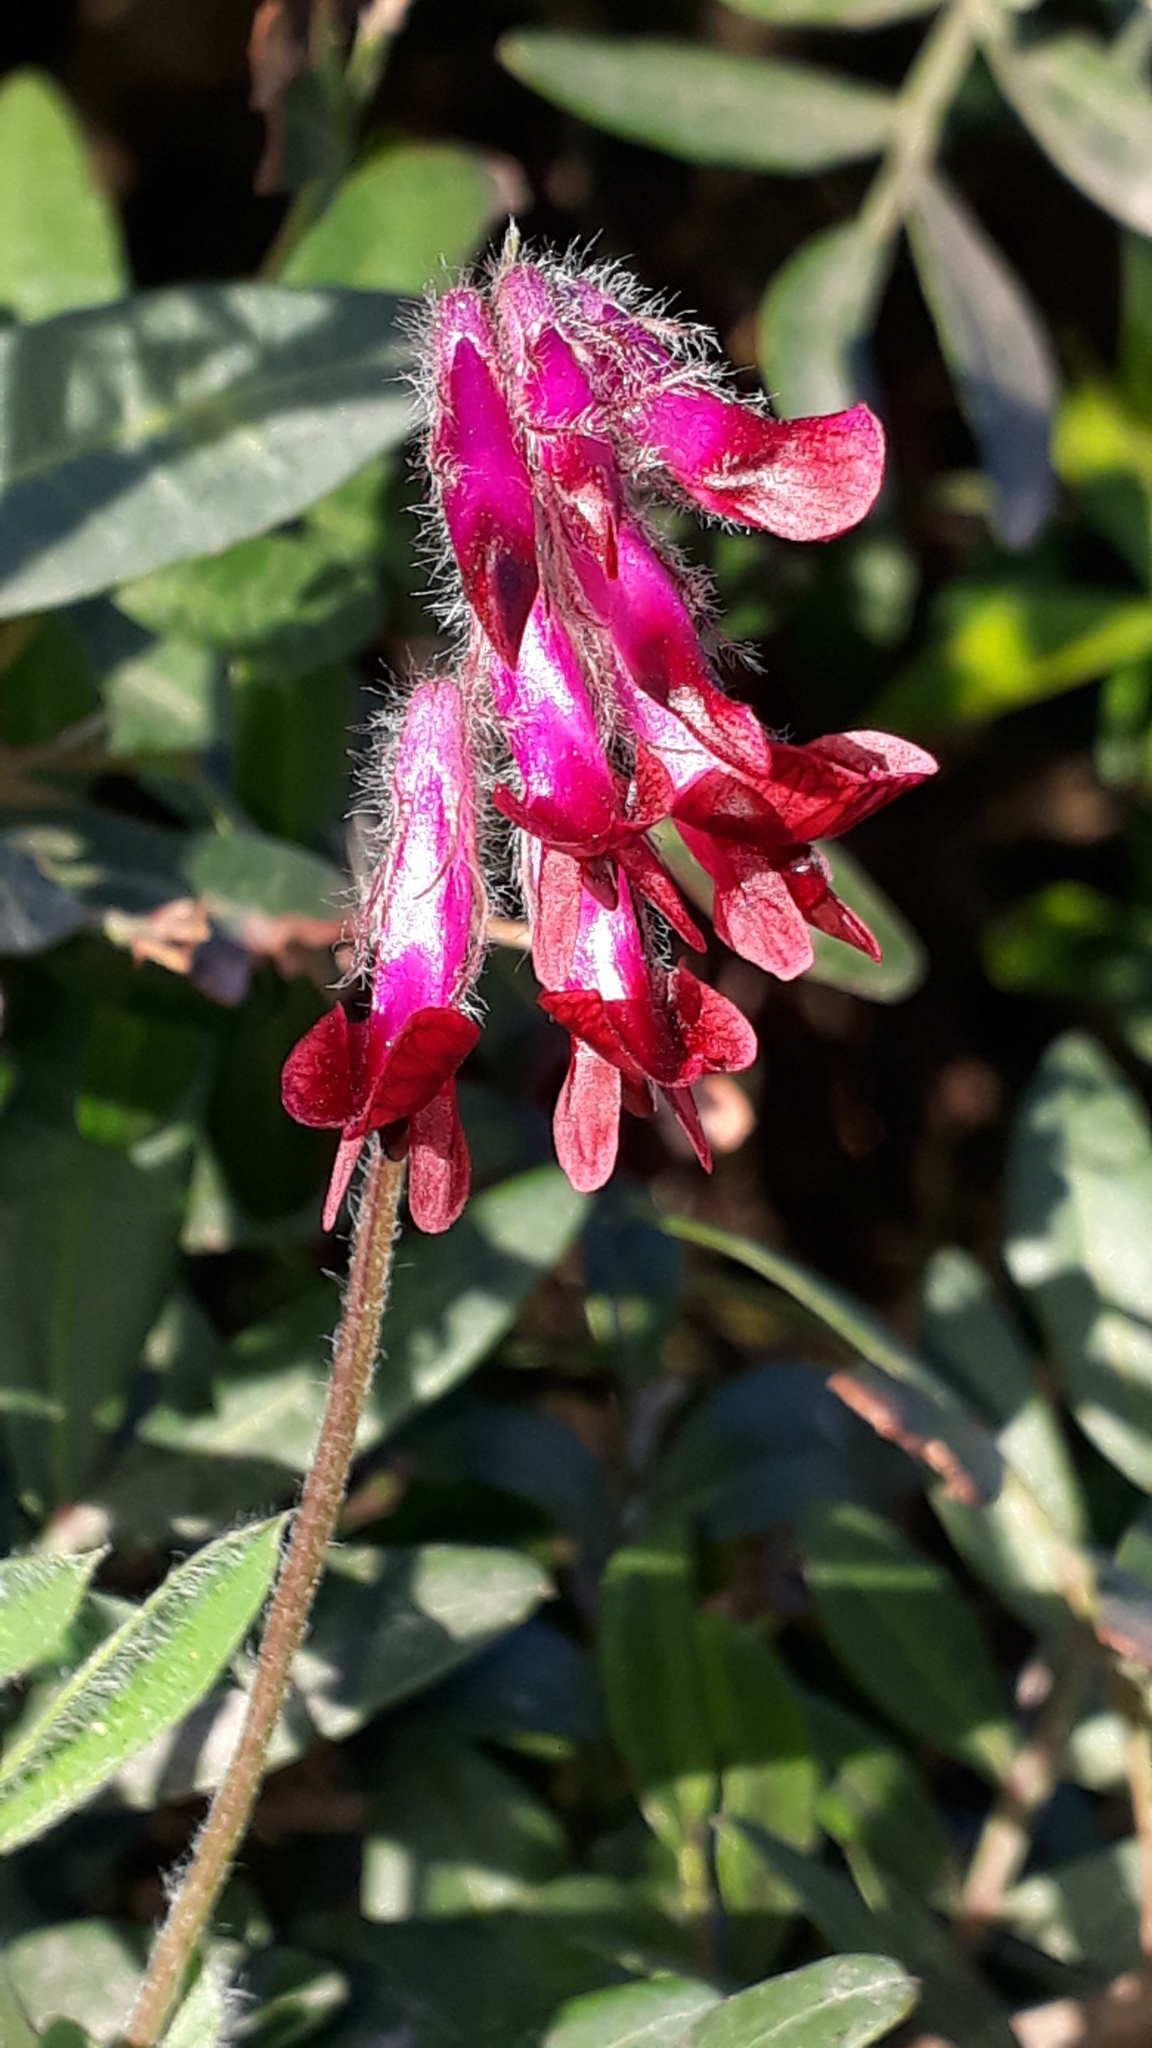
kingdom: Plantae
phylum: Tracheophyta
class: Magnoliopsida
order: Fabales
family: Fabaceae
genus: Vicia
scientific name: Vicia benghalensis
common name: Purple vetch
